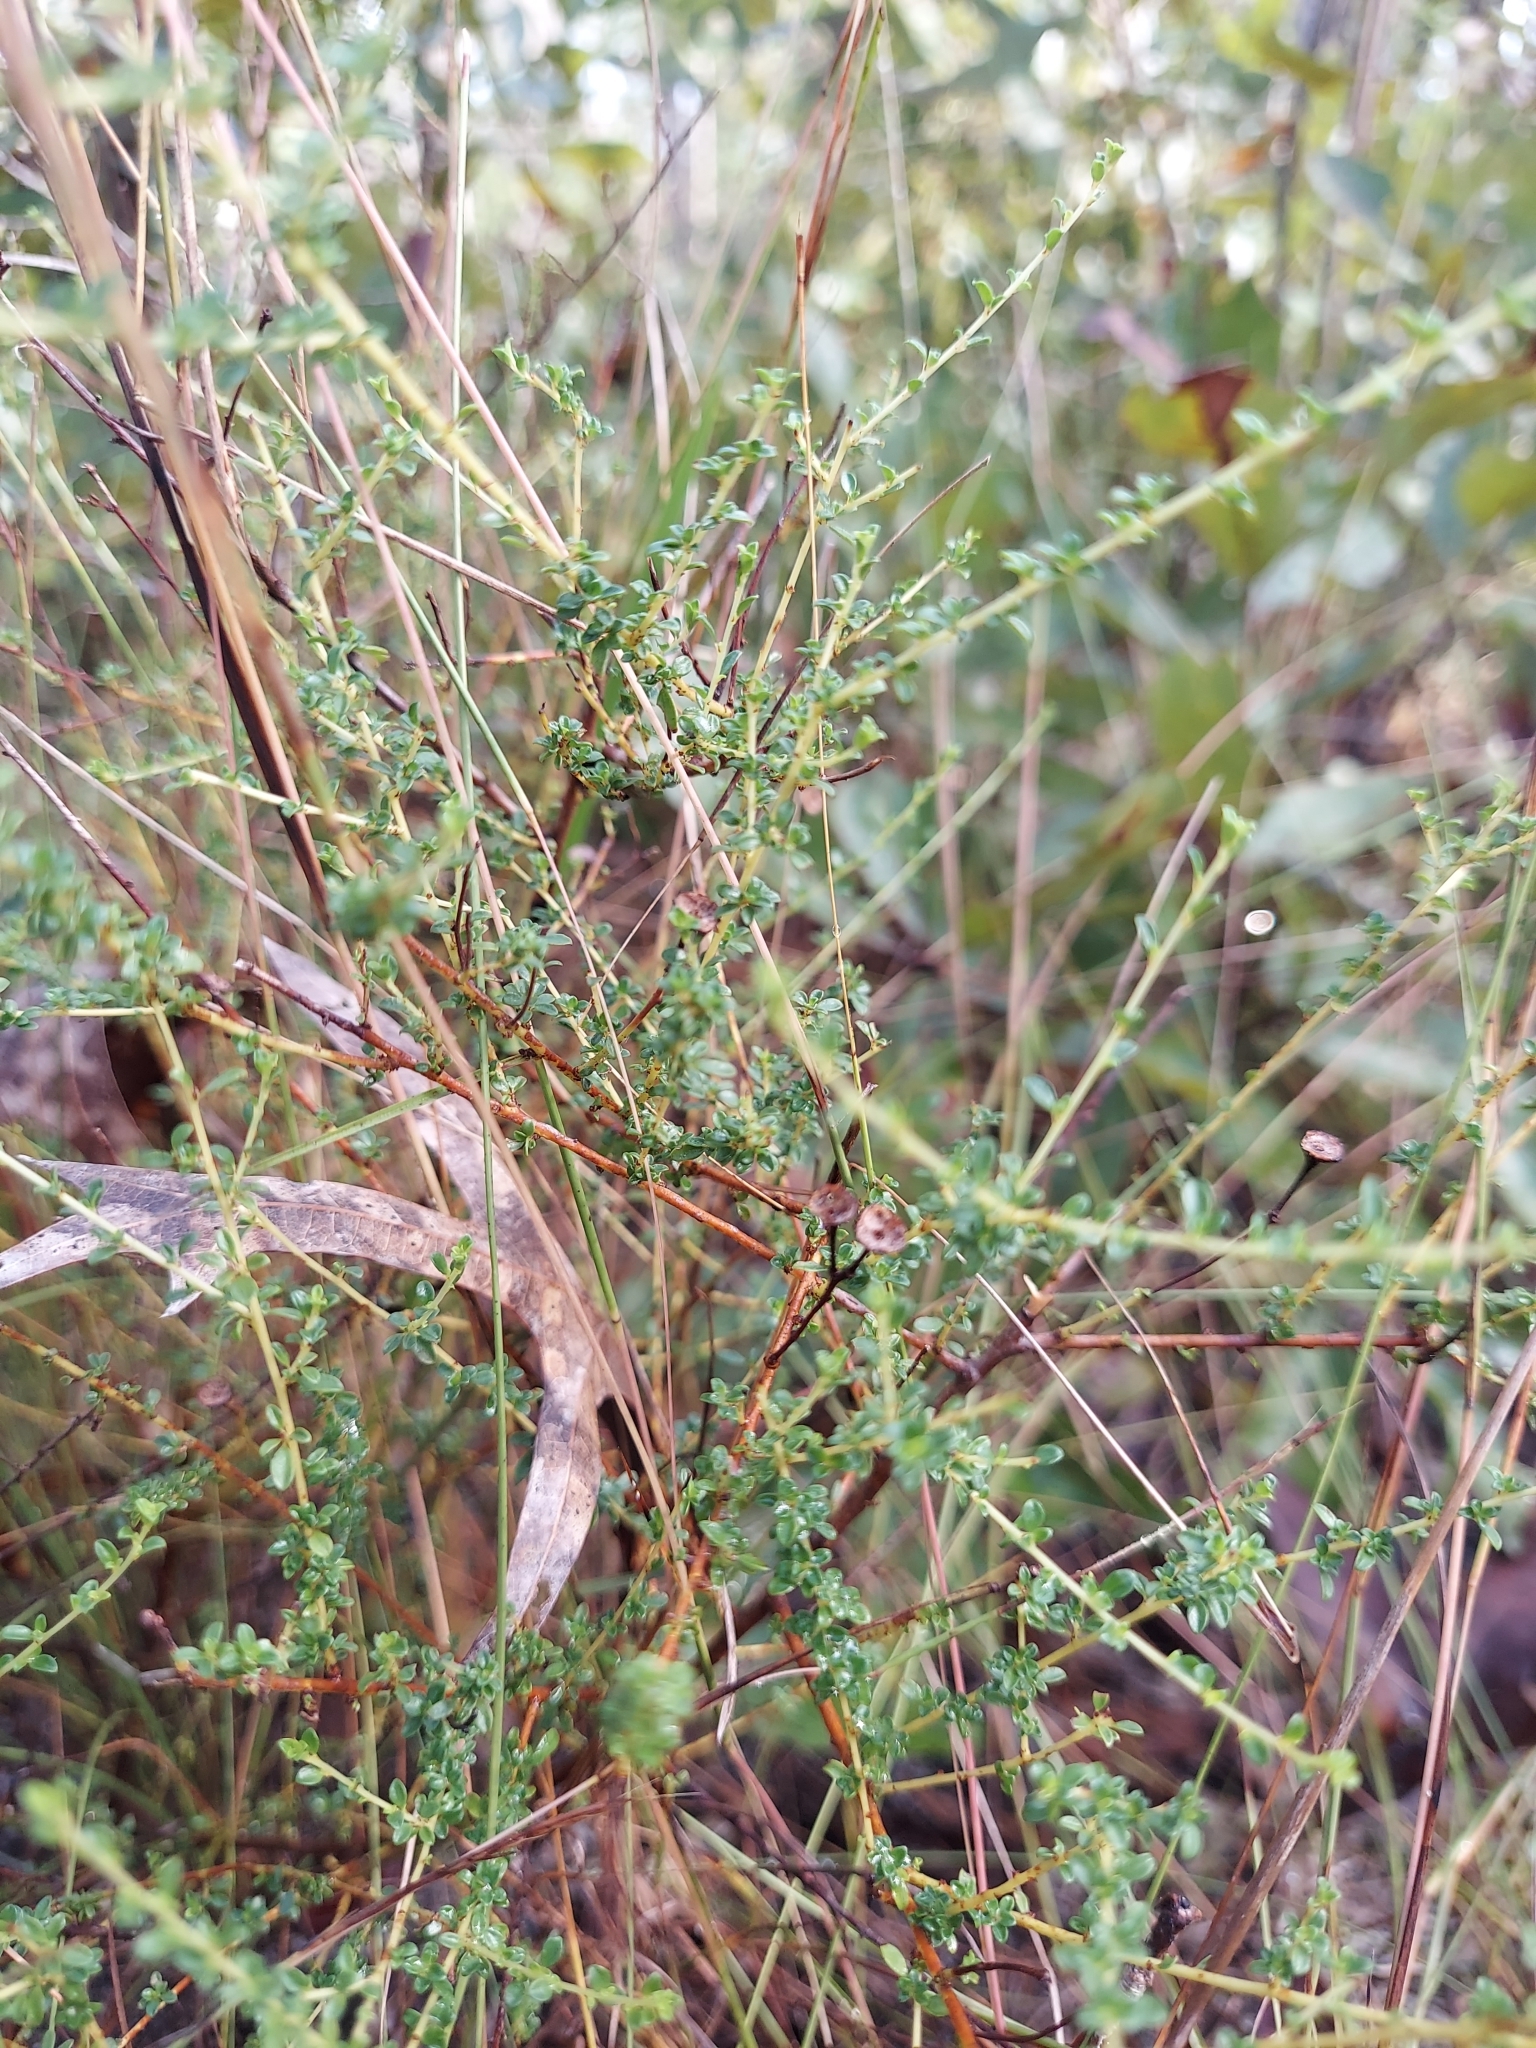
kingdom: Plantae
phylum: Tracheophyta
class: Magnoliopsida
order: Rosales
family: Rhamnaceae
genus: Ceanothus
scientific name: Ceanothus microphyllus
